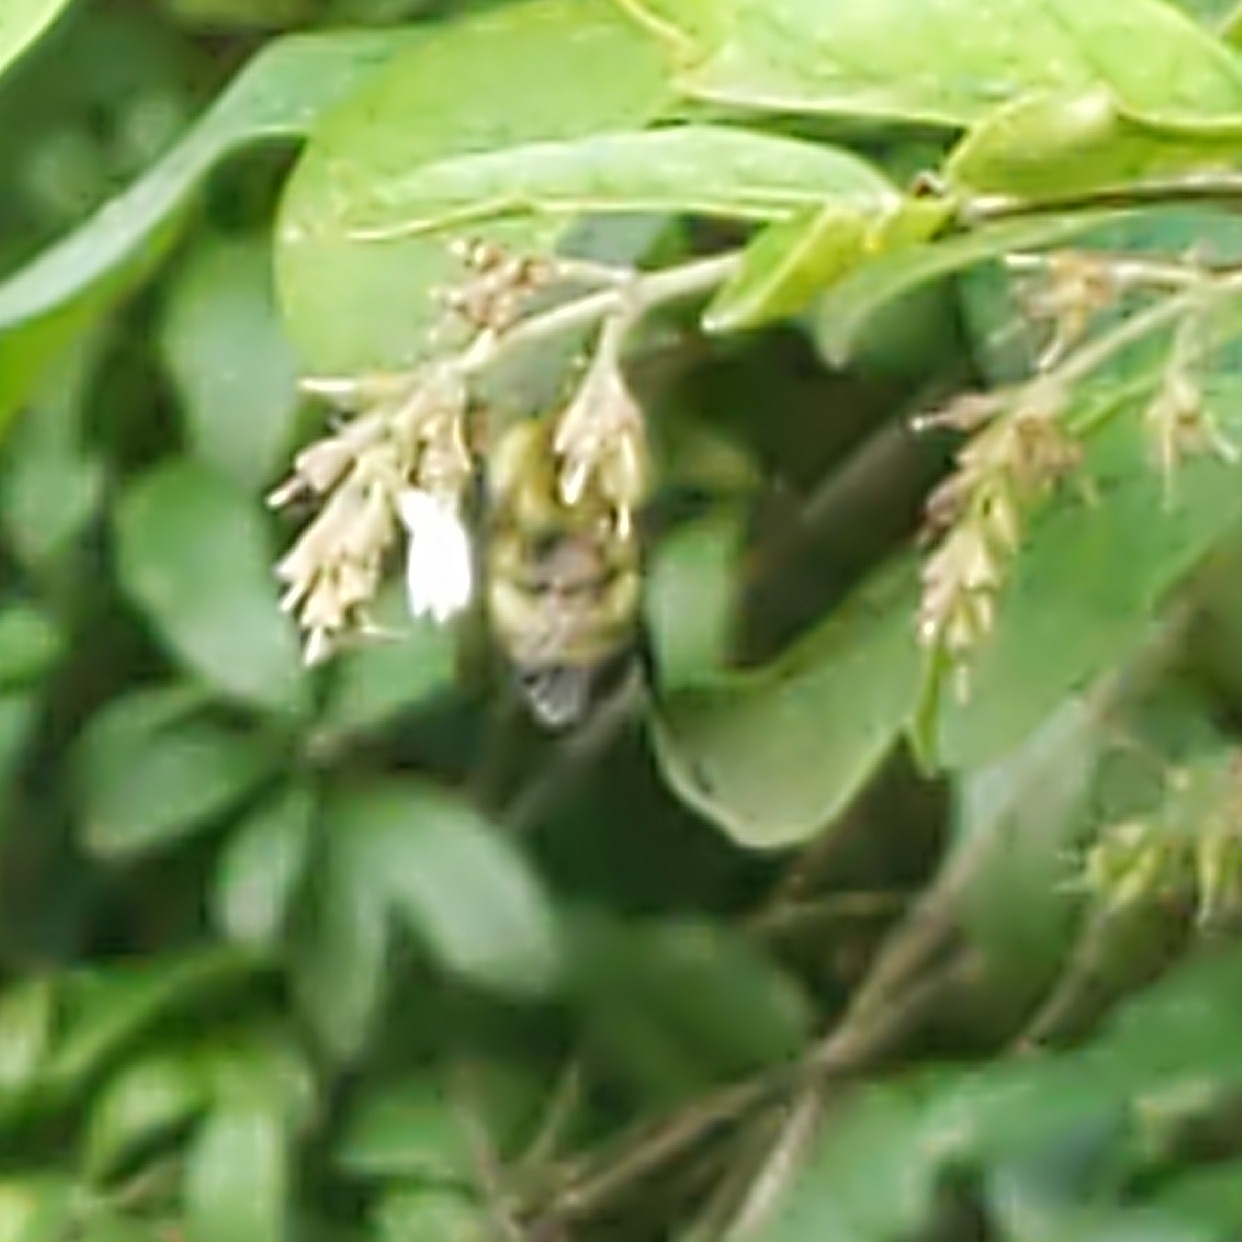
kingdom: Animalia
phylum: Arthropoda
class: Insecta
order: Hymenoptera
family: Apidae
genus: Bombus
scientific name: Bombus perplexus
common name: Confusing bumble bee
